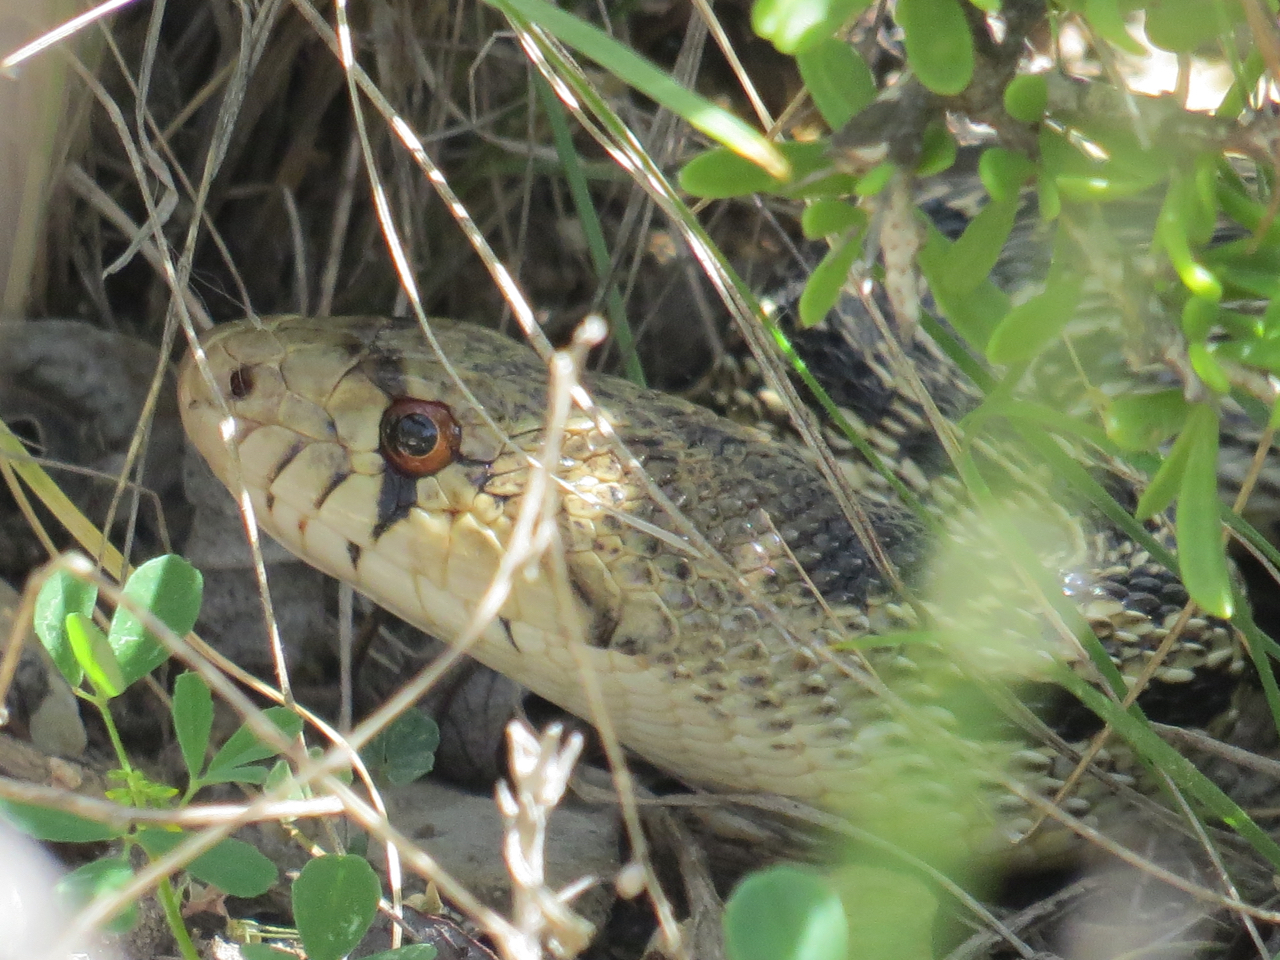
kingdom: Animalia
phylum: Chordata
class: Squamata
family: Colubridae
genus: Pituophis
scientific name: Pituophis catenifer
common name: Gopher snake
